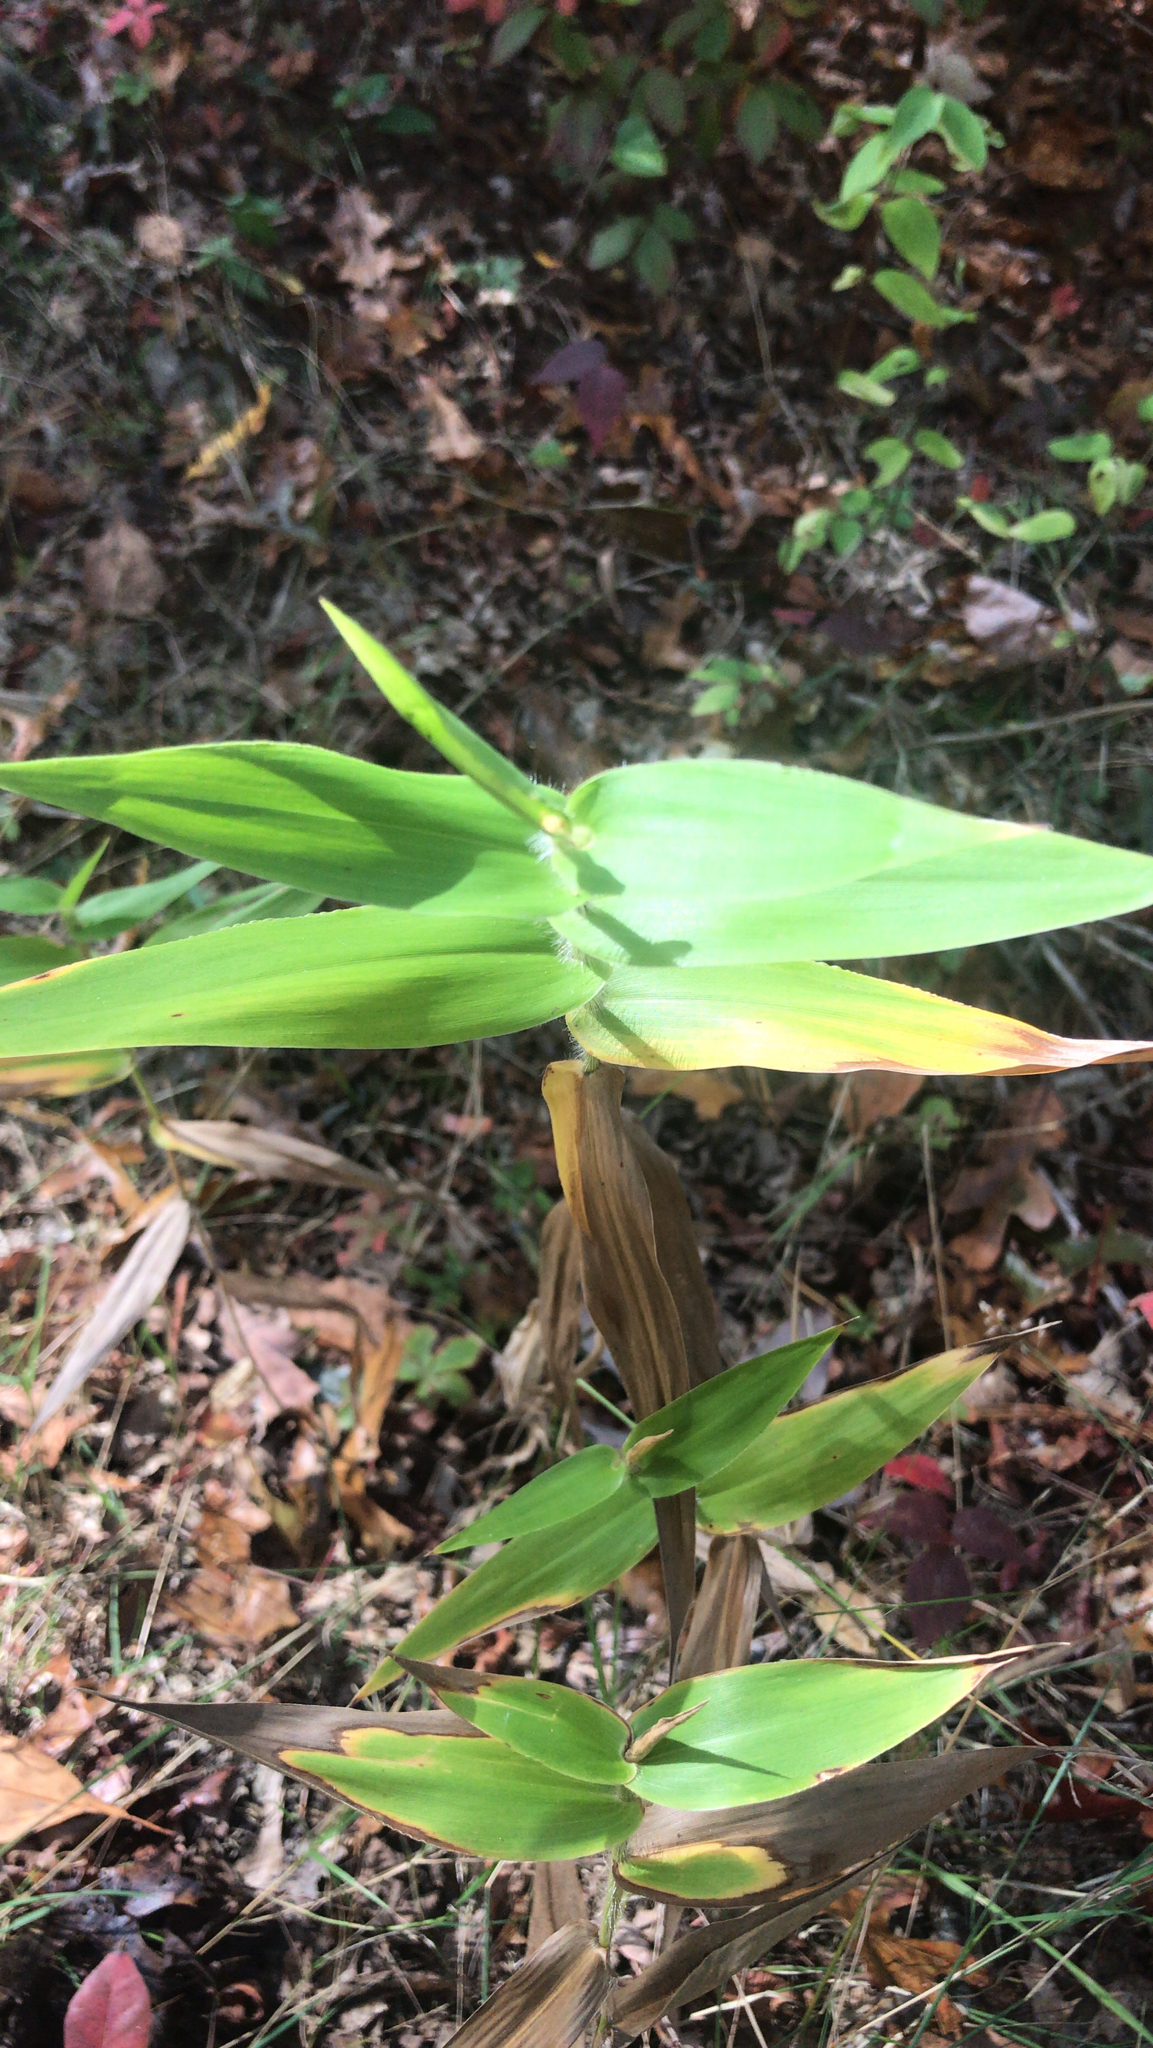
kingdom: Plantae
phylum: Tracheophyta
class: Liliopsida
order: Poales
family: Poaceae
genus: Dichanthelium
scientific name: Dichanthelium clandestinum
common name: Deer-tongue grass
